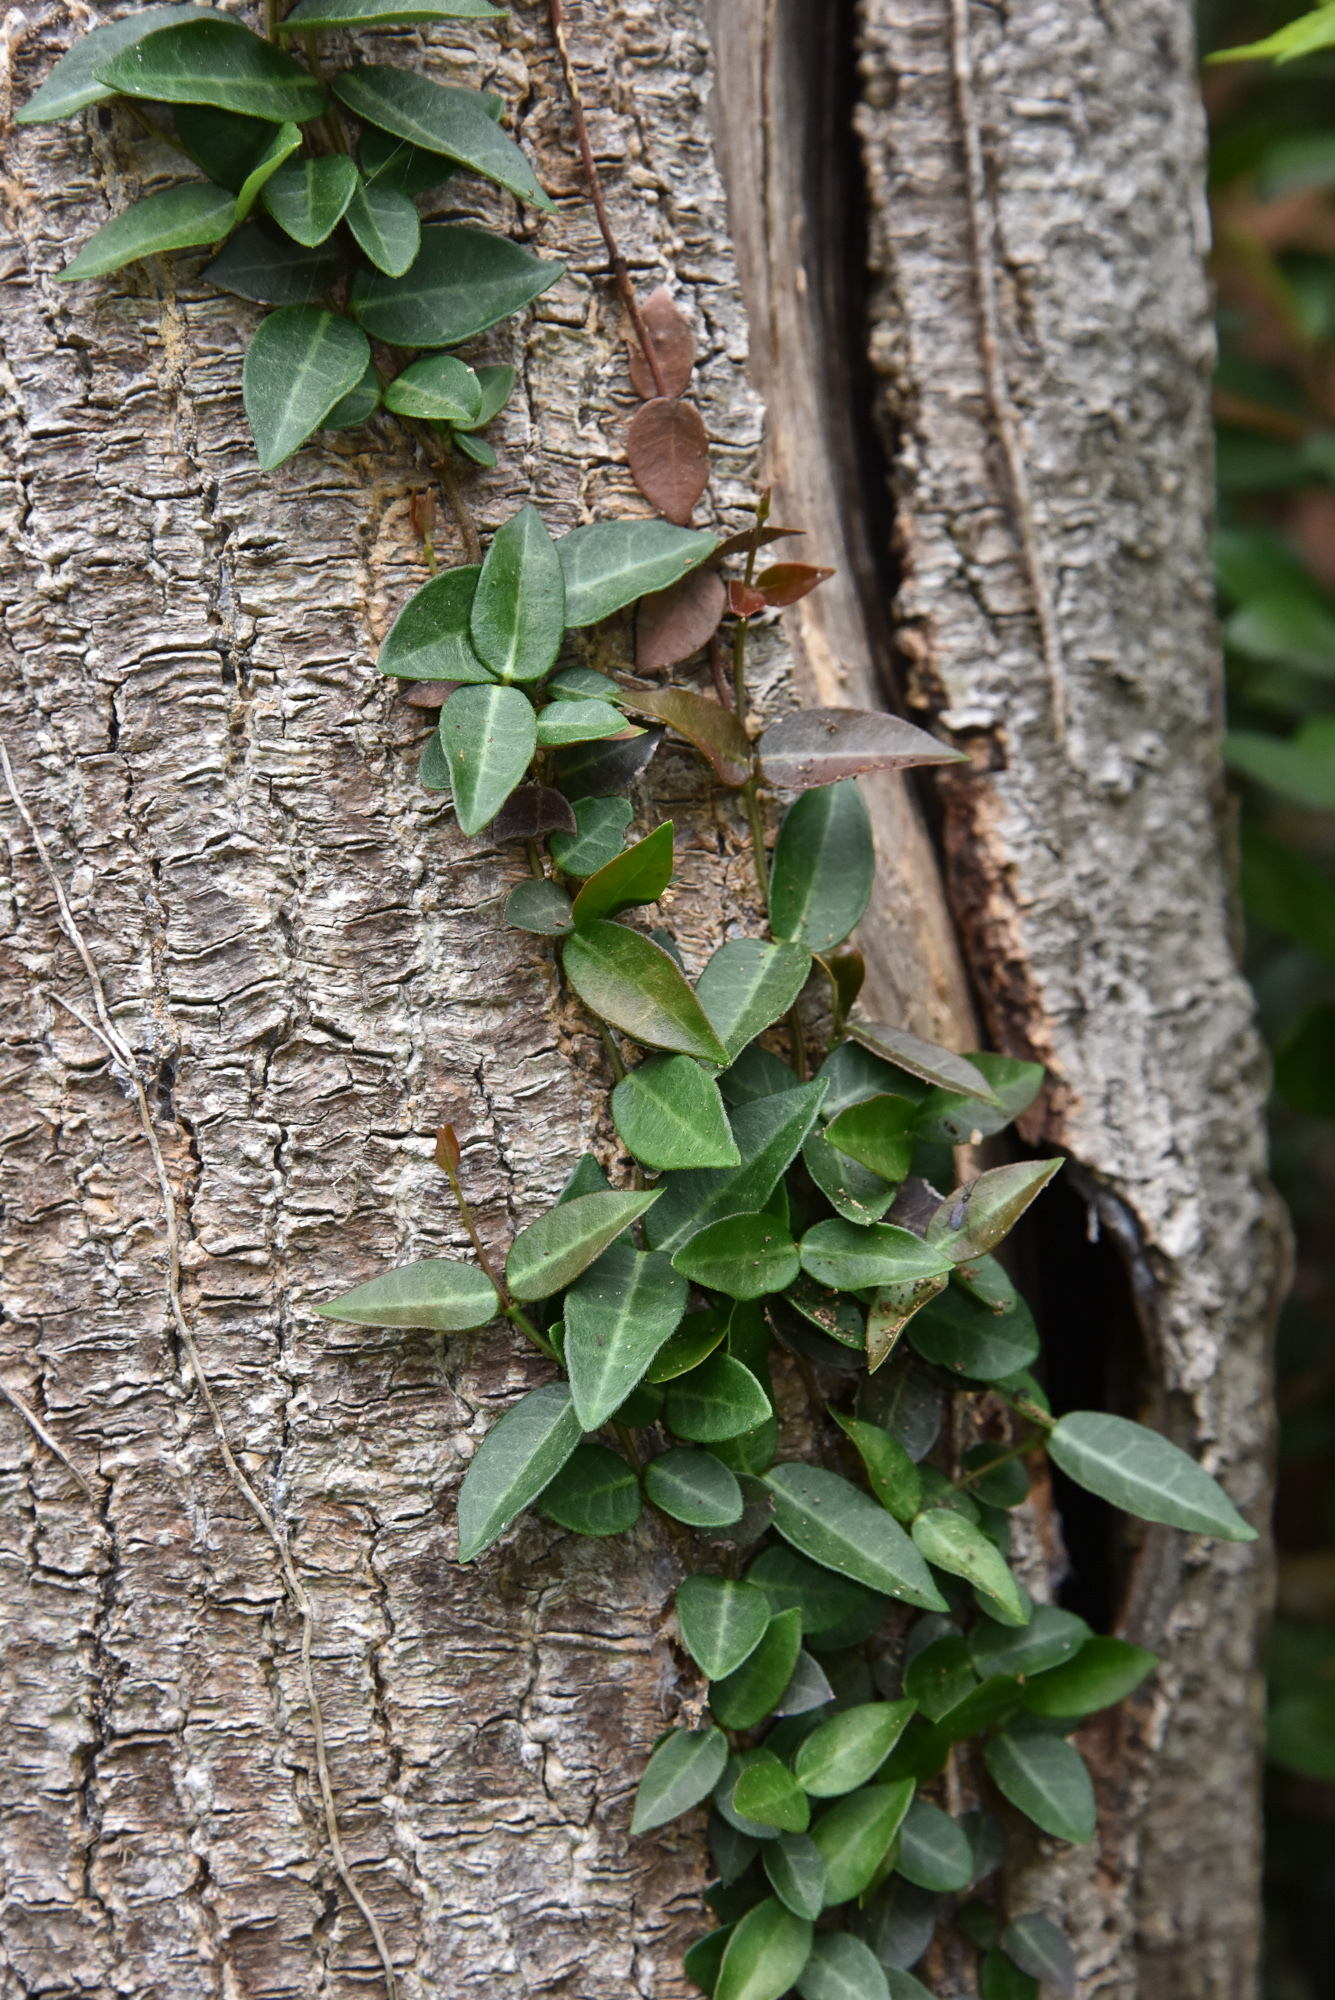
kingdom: Plantae
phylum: Tracheophyta
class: Magnoliopsida
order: Gentianales
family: Apocynaceae
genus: Trachelospermum
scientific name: Trachelospermum jasminoides
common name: Confederate jasmine
